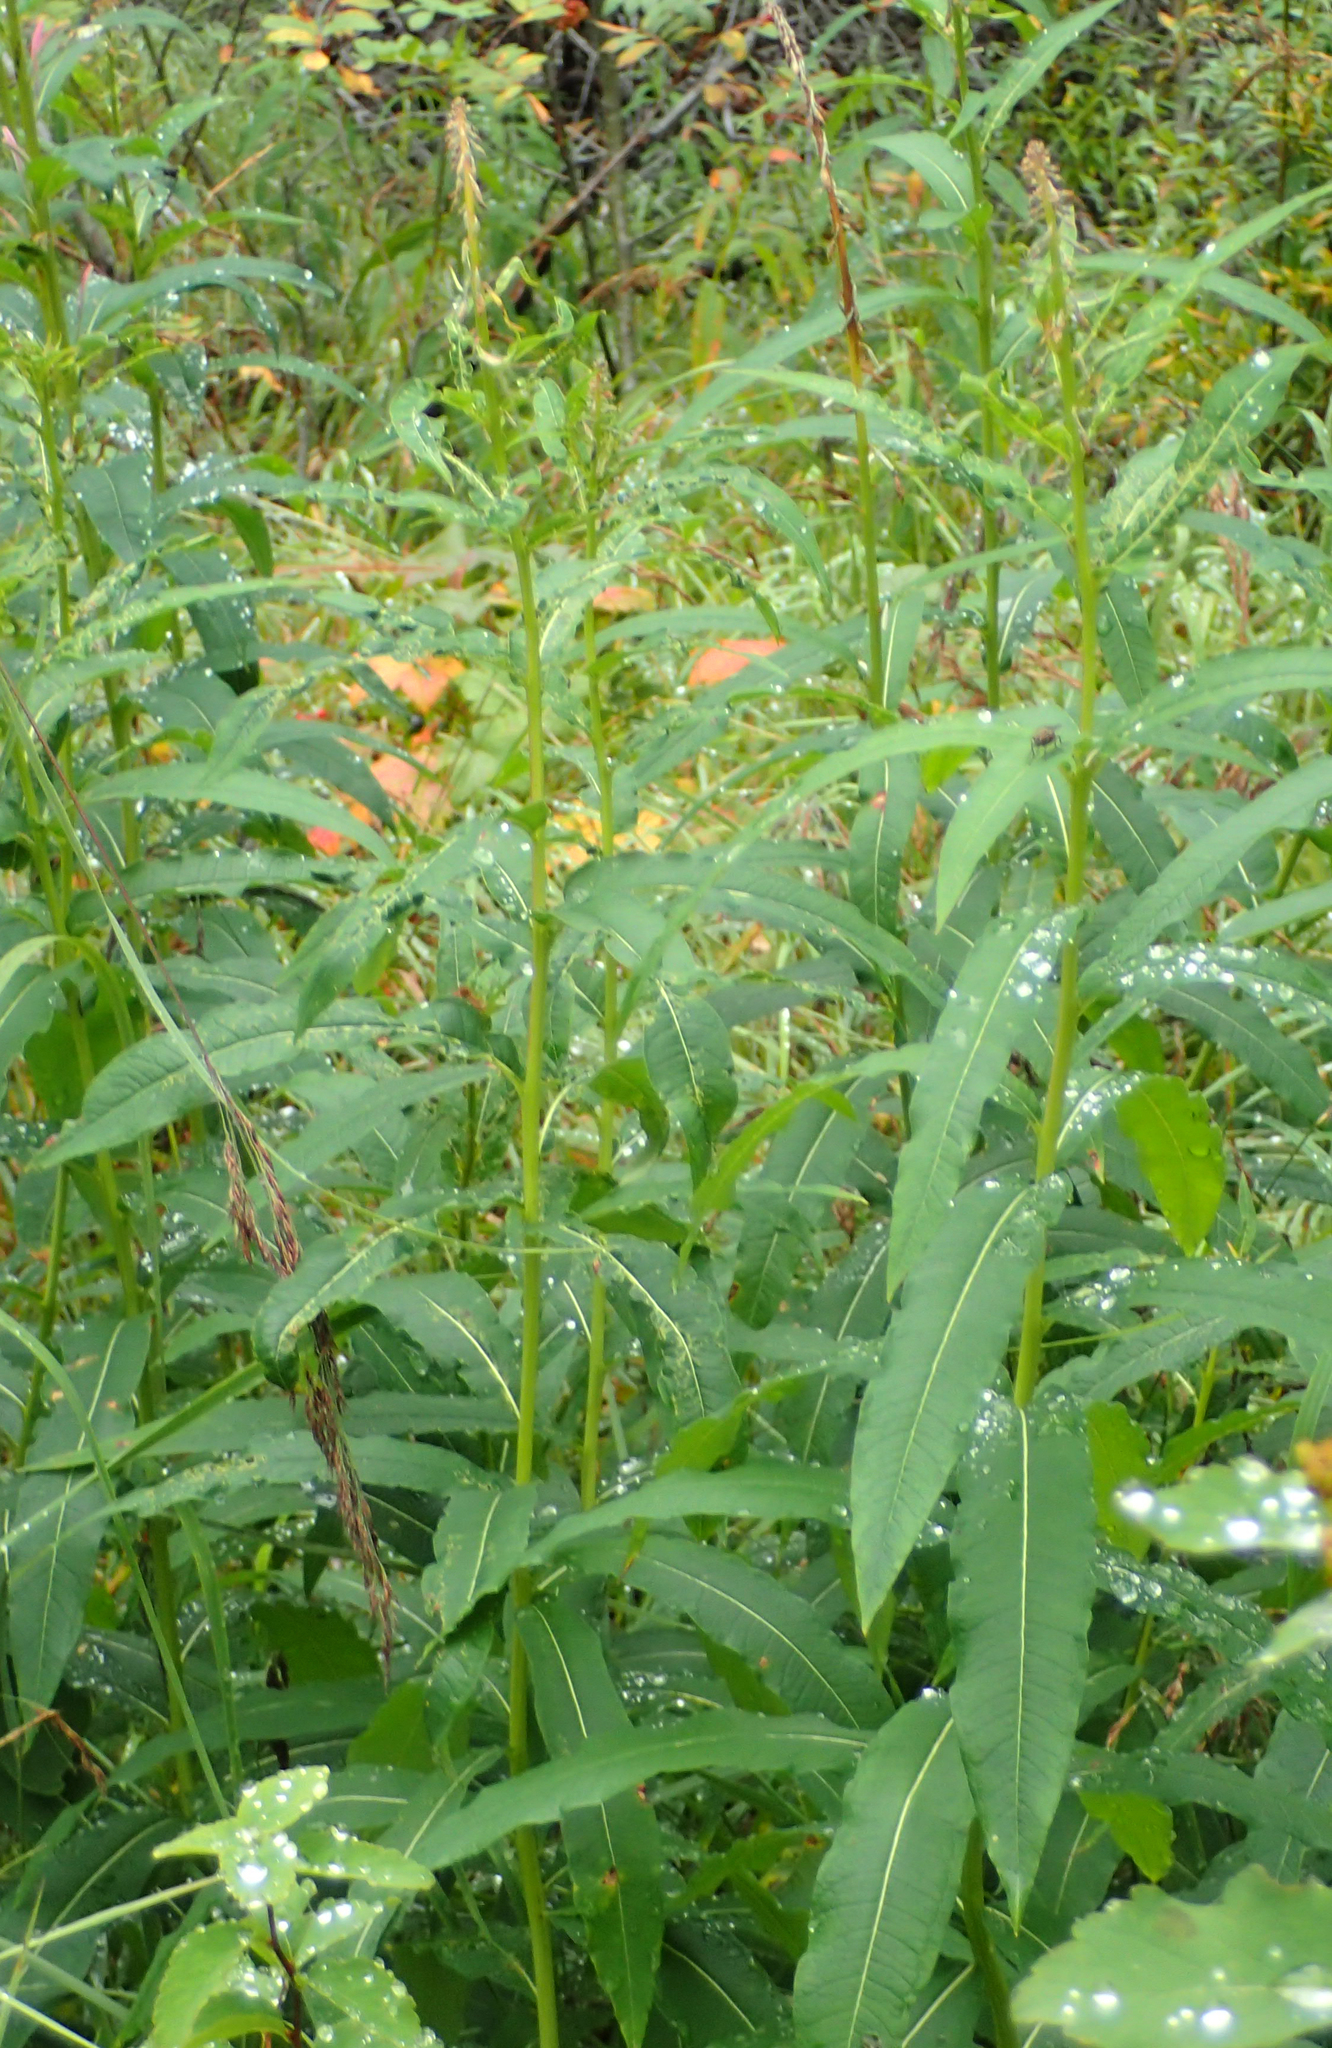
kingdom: Plantae
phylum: Tracheophyta
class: Magnoliopsida
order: Myrtales
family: Onagraceae
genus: Chamaenerion
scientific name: Chamaenerion angustifolium
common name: Fireweed
